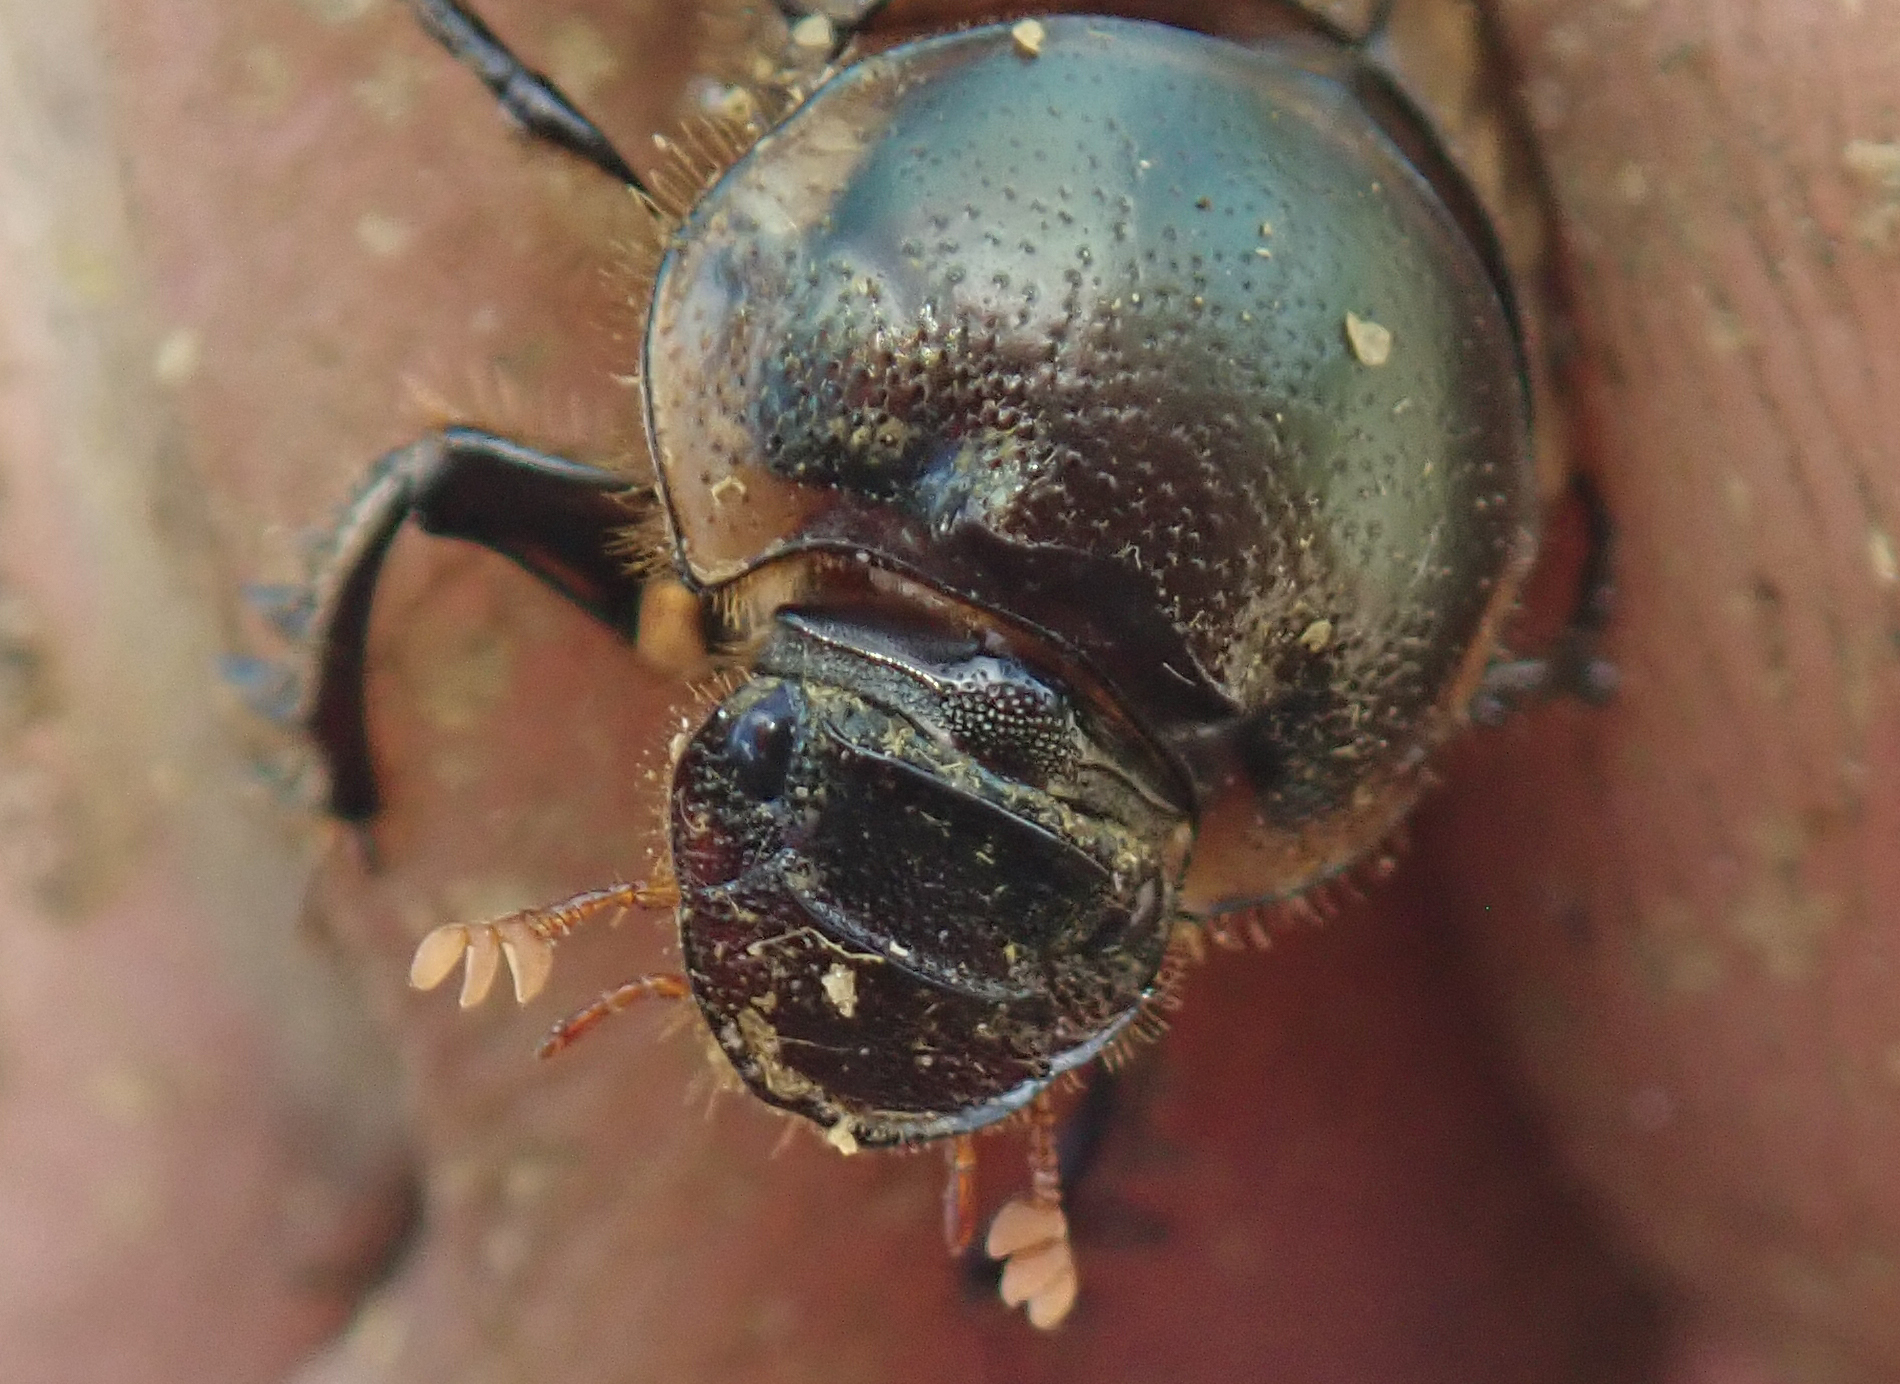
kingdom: Animalia
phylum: Arthropoda
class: Insecta
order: Coleoptera
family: Scarabaeidae
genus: Digitonthophagus
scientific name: Digitonthophagus gazella
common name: Brown dung beetle
